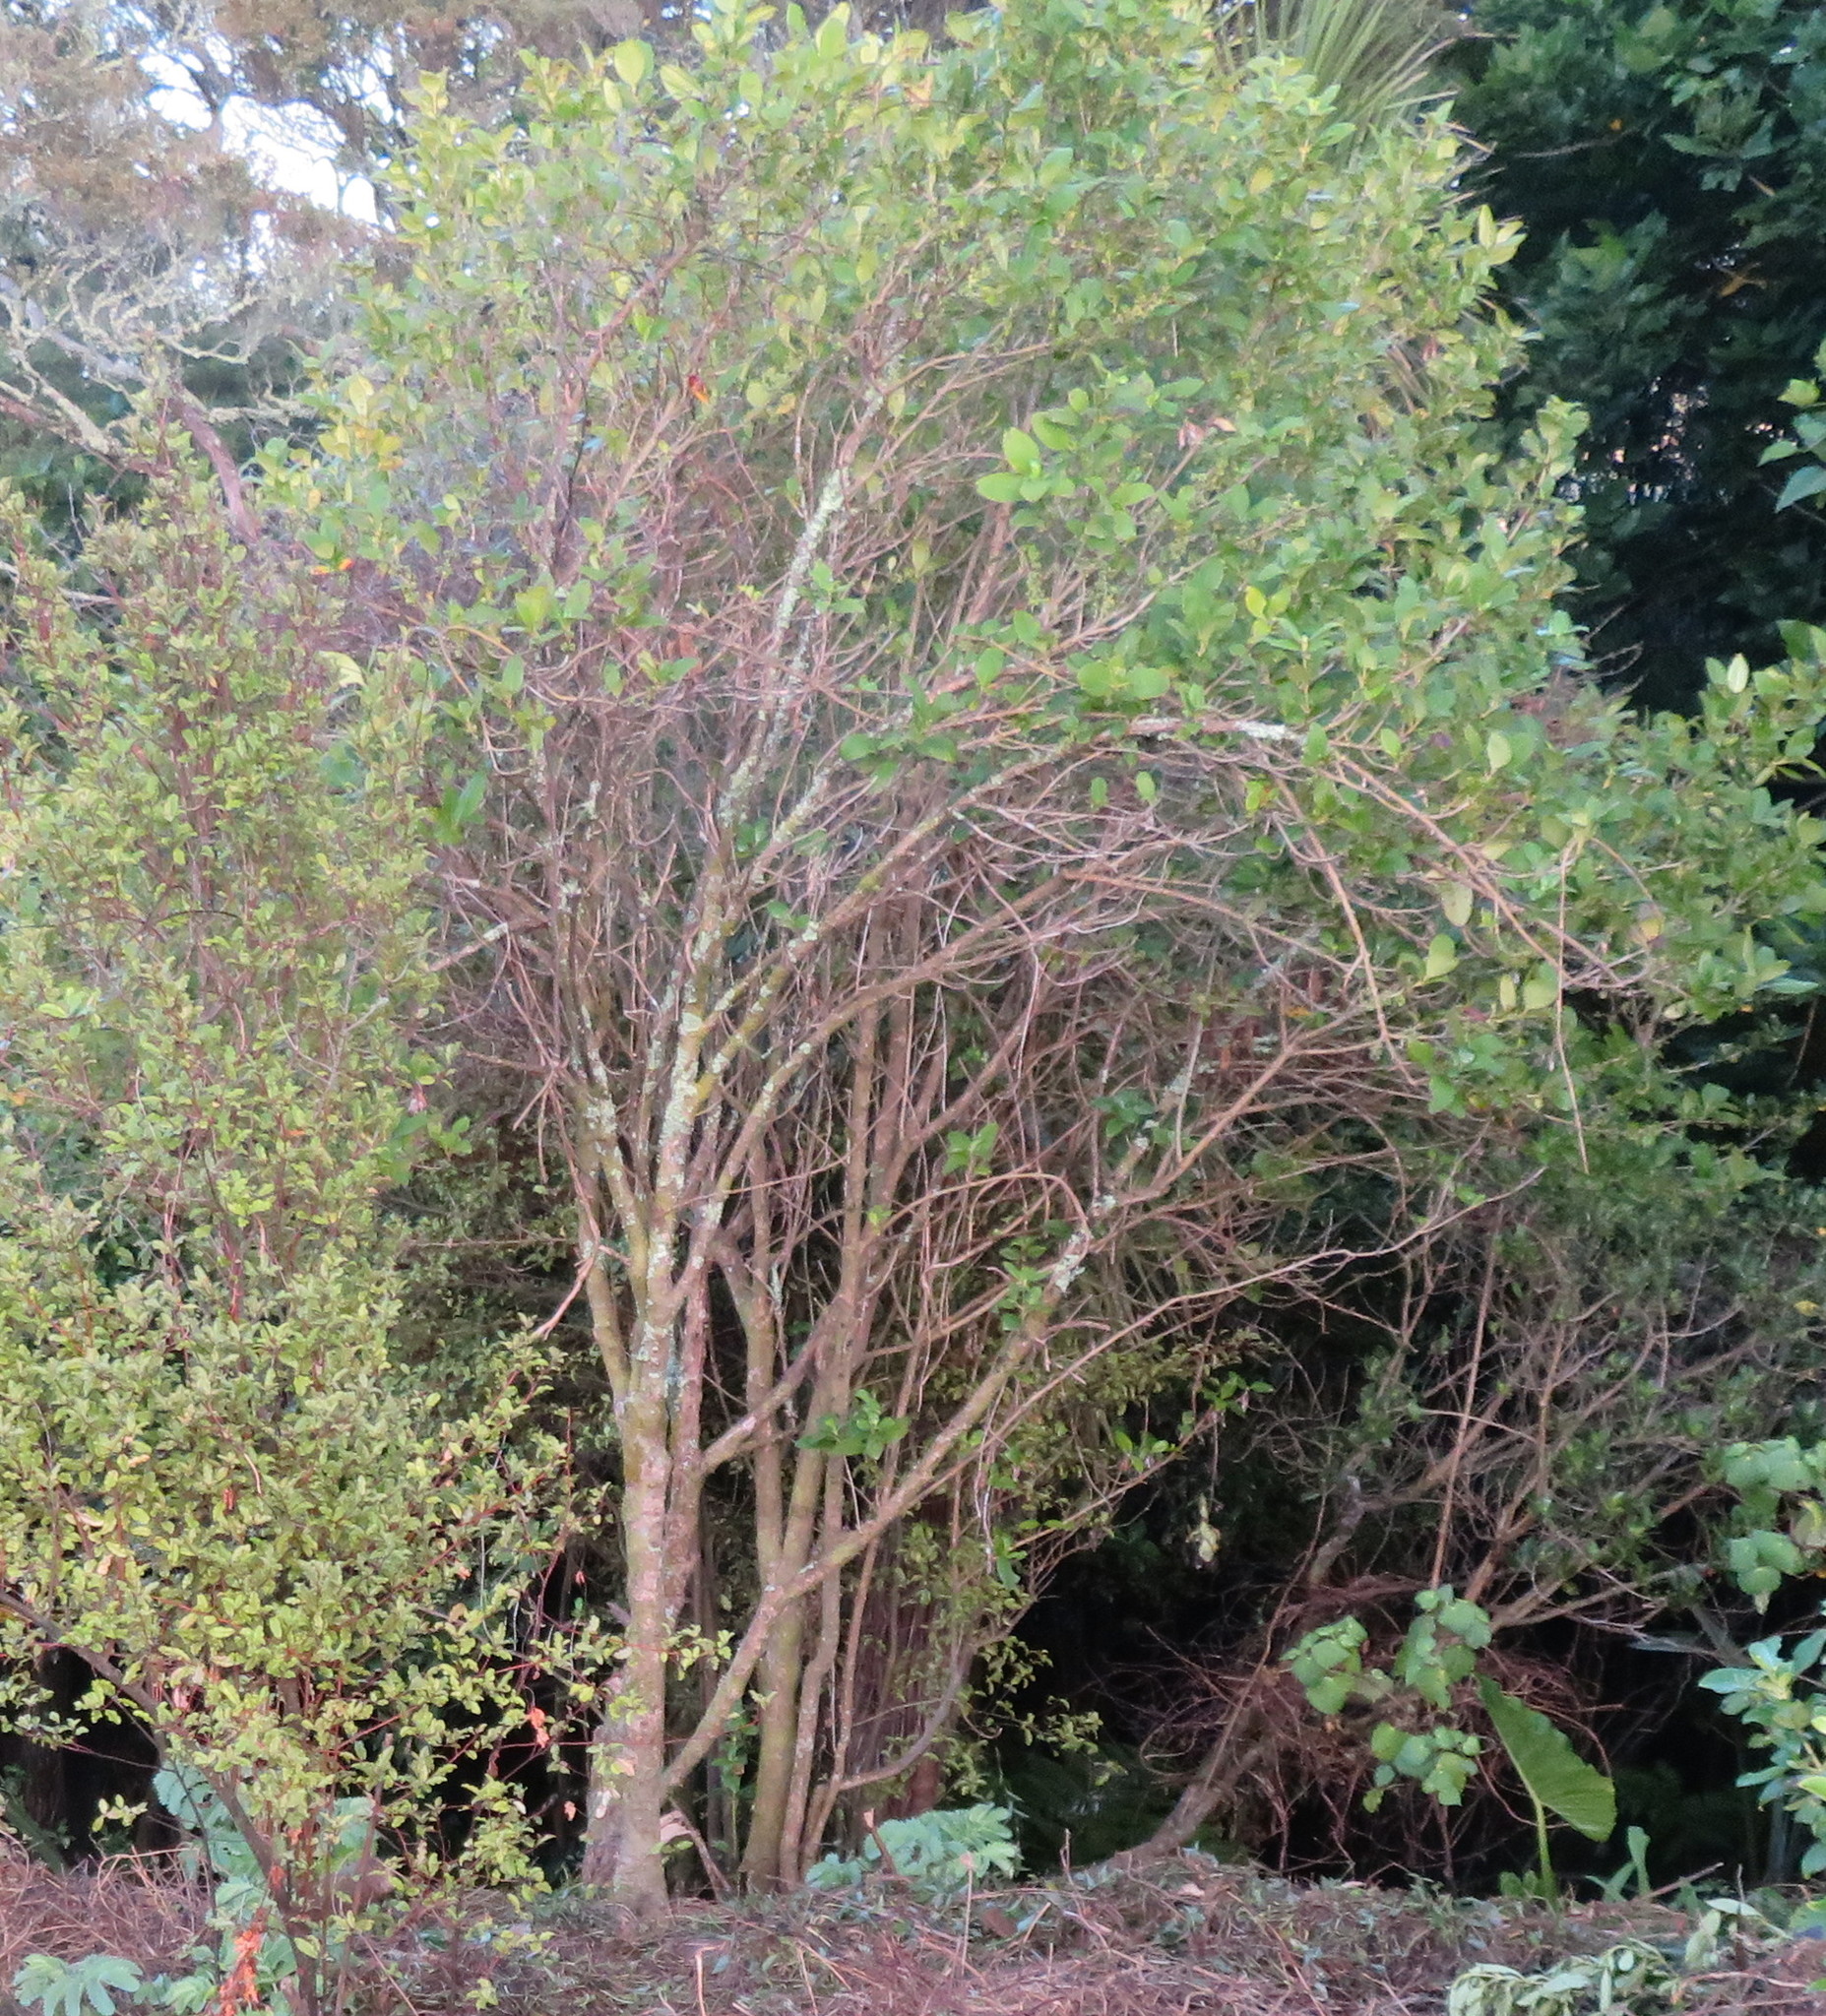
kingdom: Plantae
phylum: Tracheophyta
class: Magnoliopsida
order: Gentianales
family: Rubiaceae
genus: Coprosma
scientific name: Coprosma robusta
